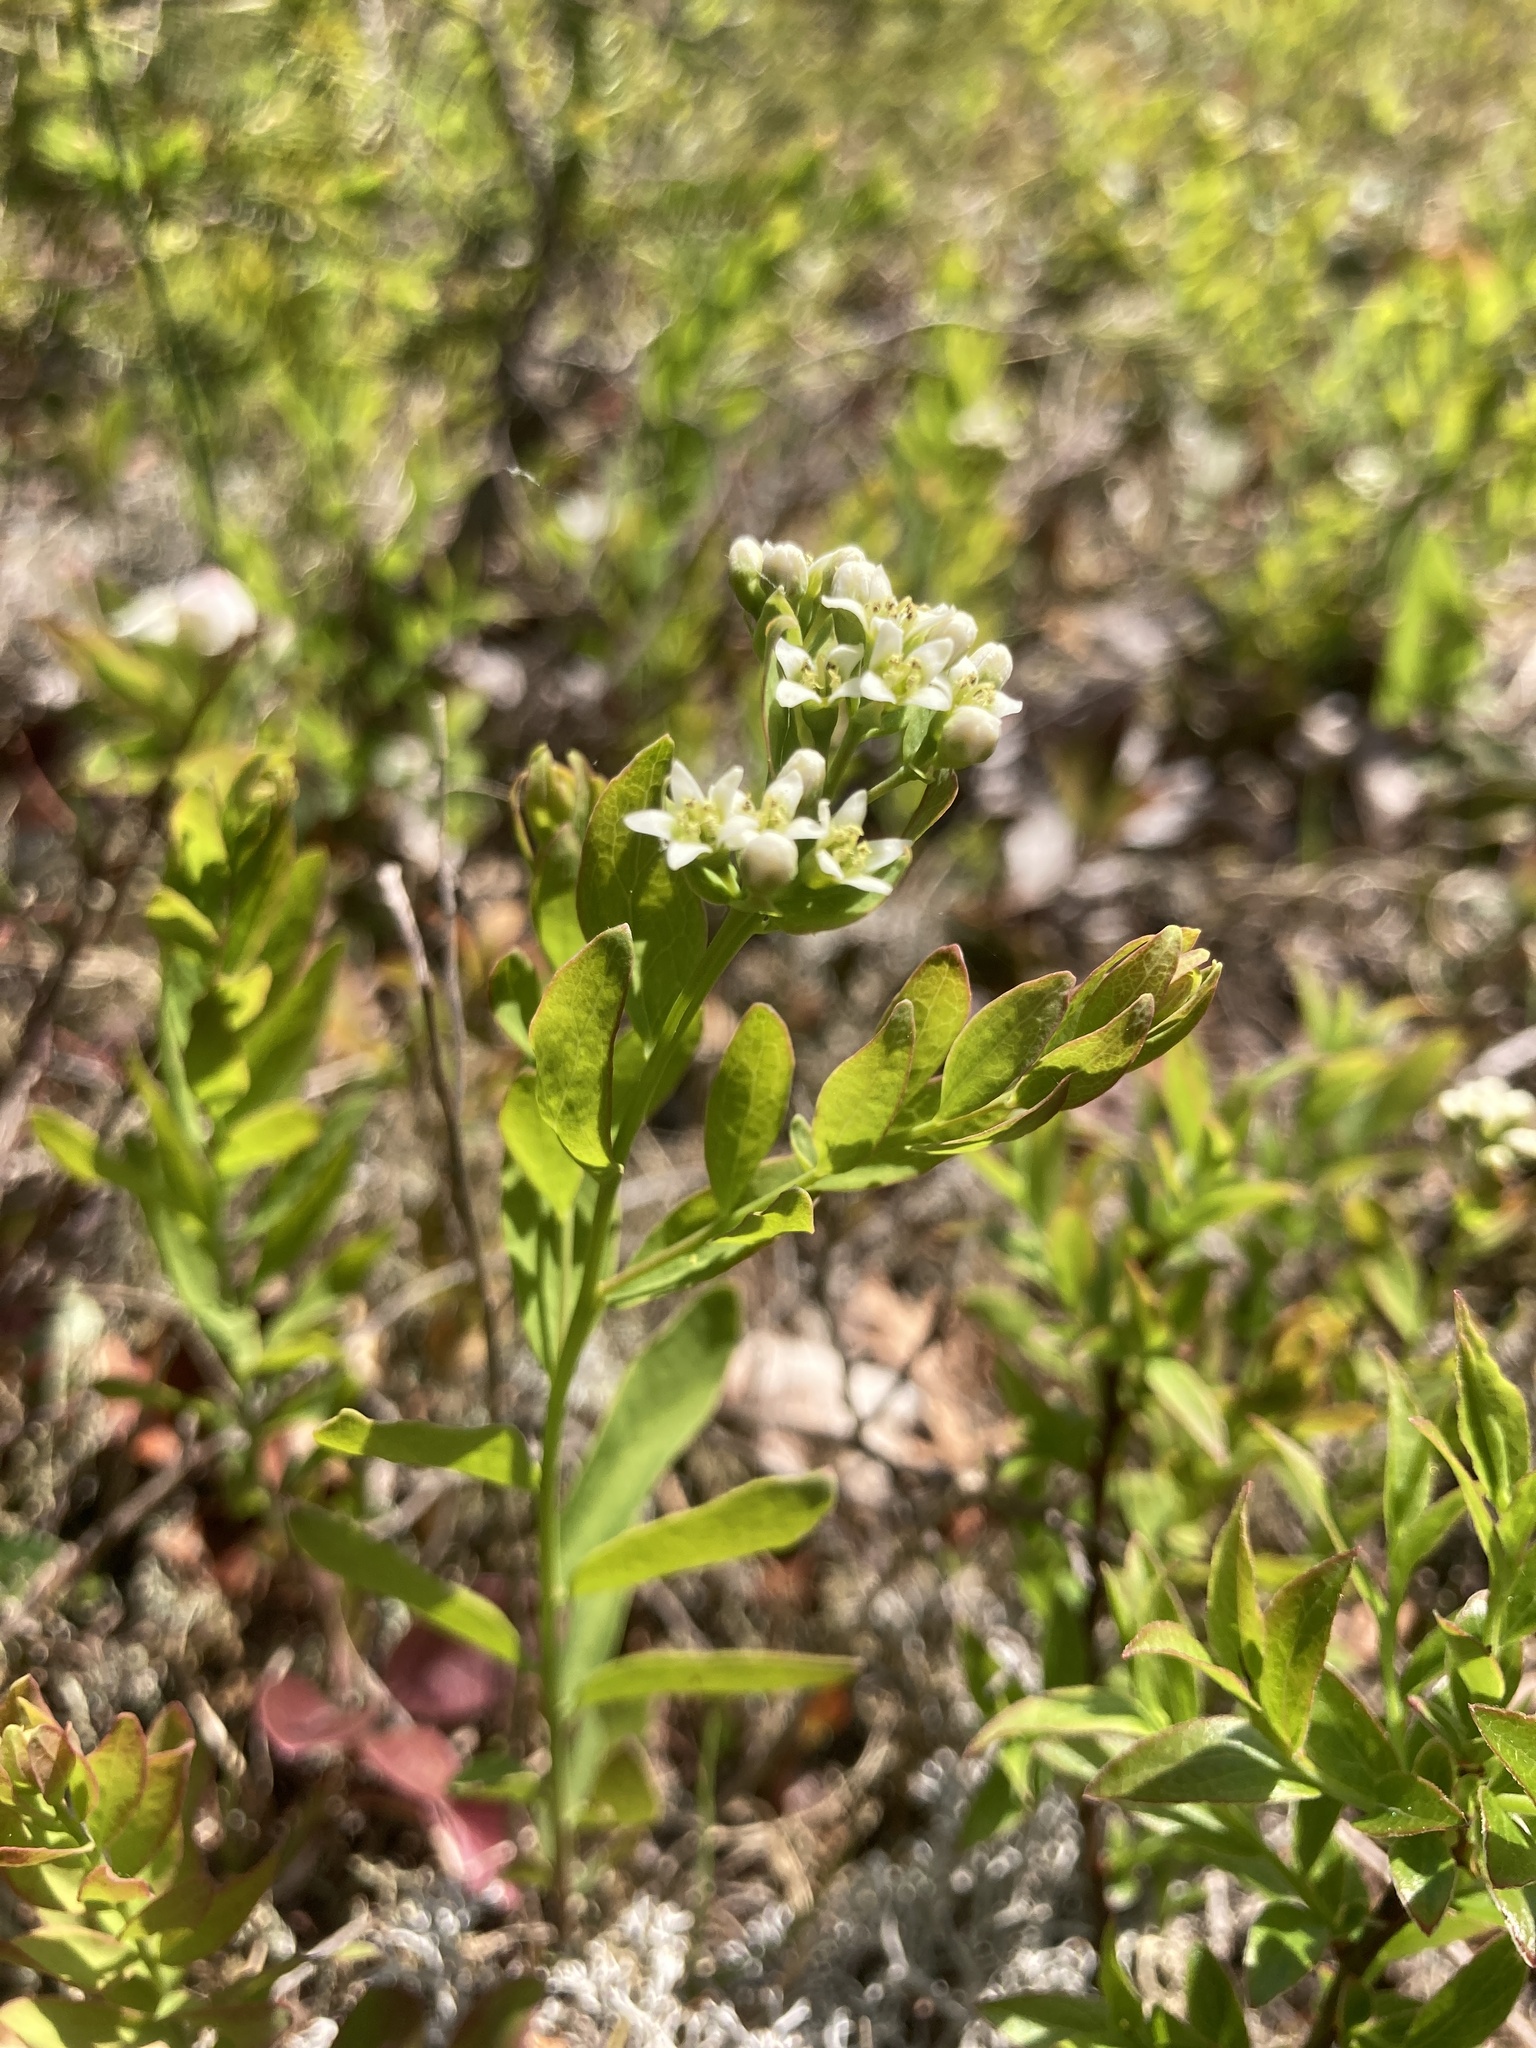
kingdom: Plantae
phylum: Tracheophyta
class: Magnoliopsida
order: Santalales
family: Comandraceae
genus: Comandra
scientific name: Comandra umbellata
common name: Bastard toadflax
